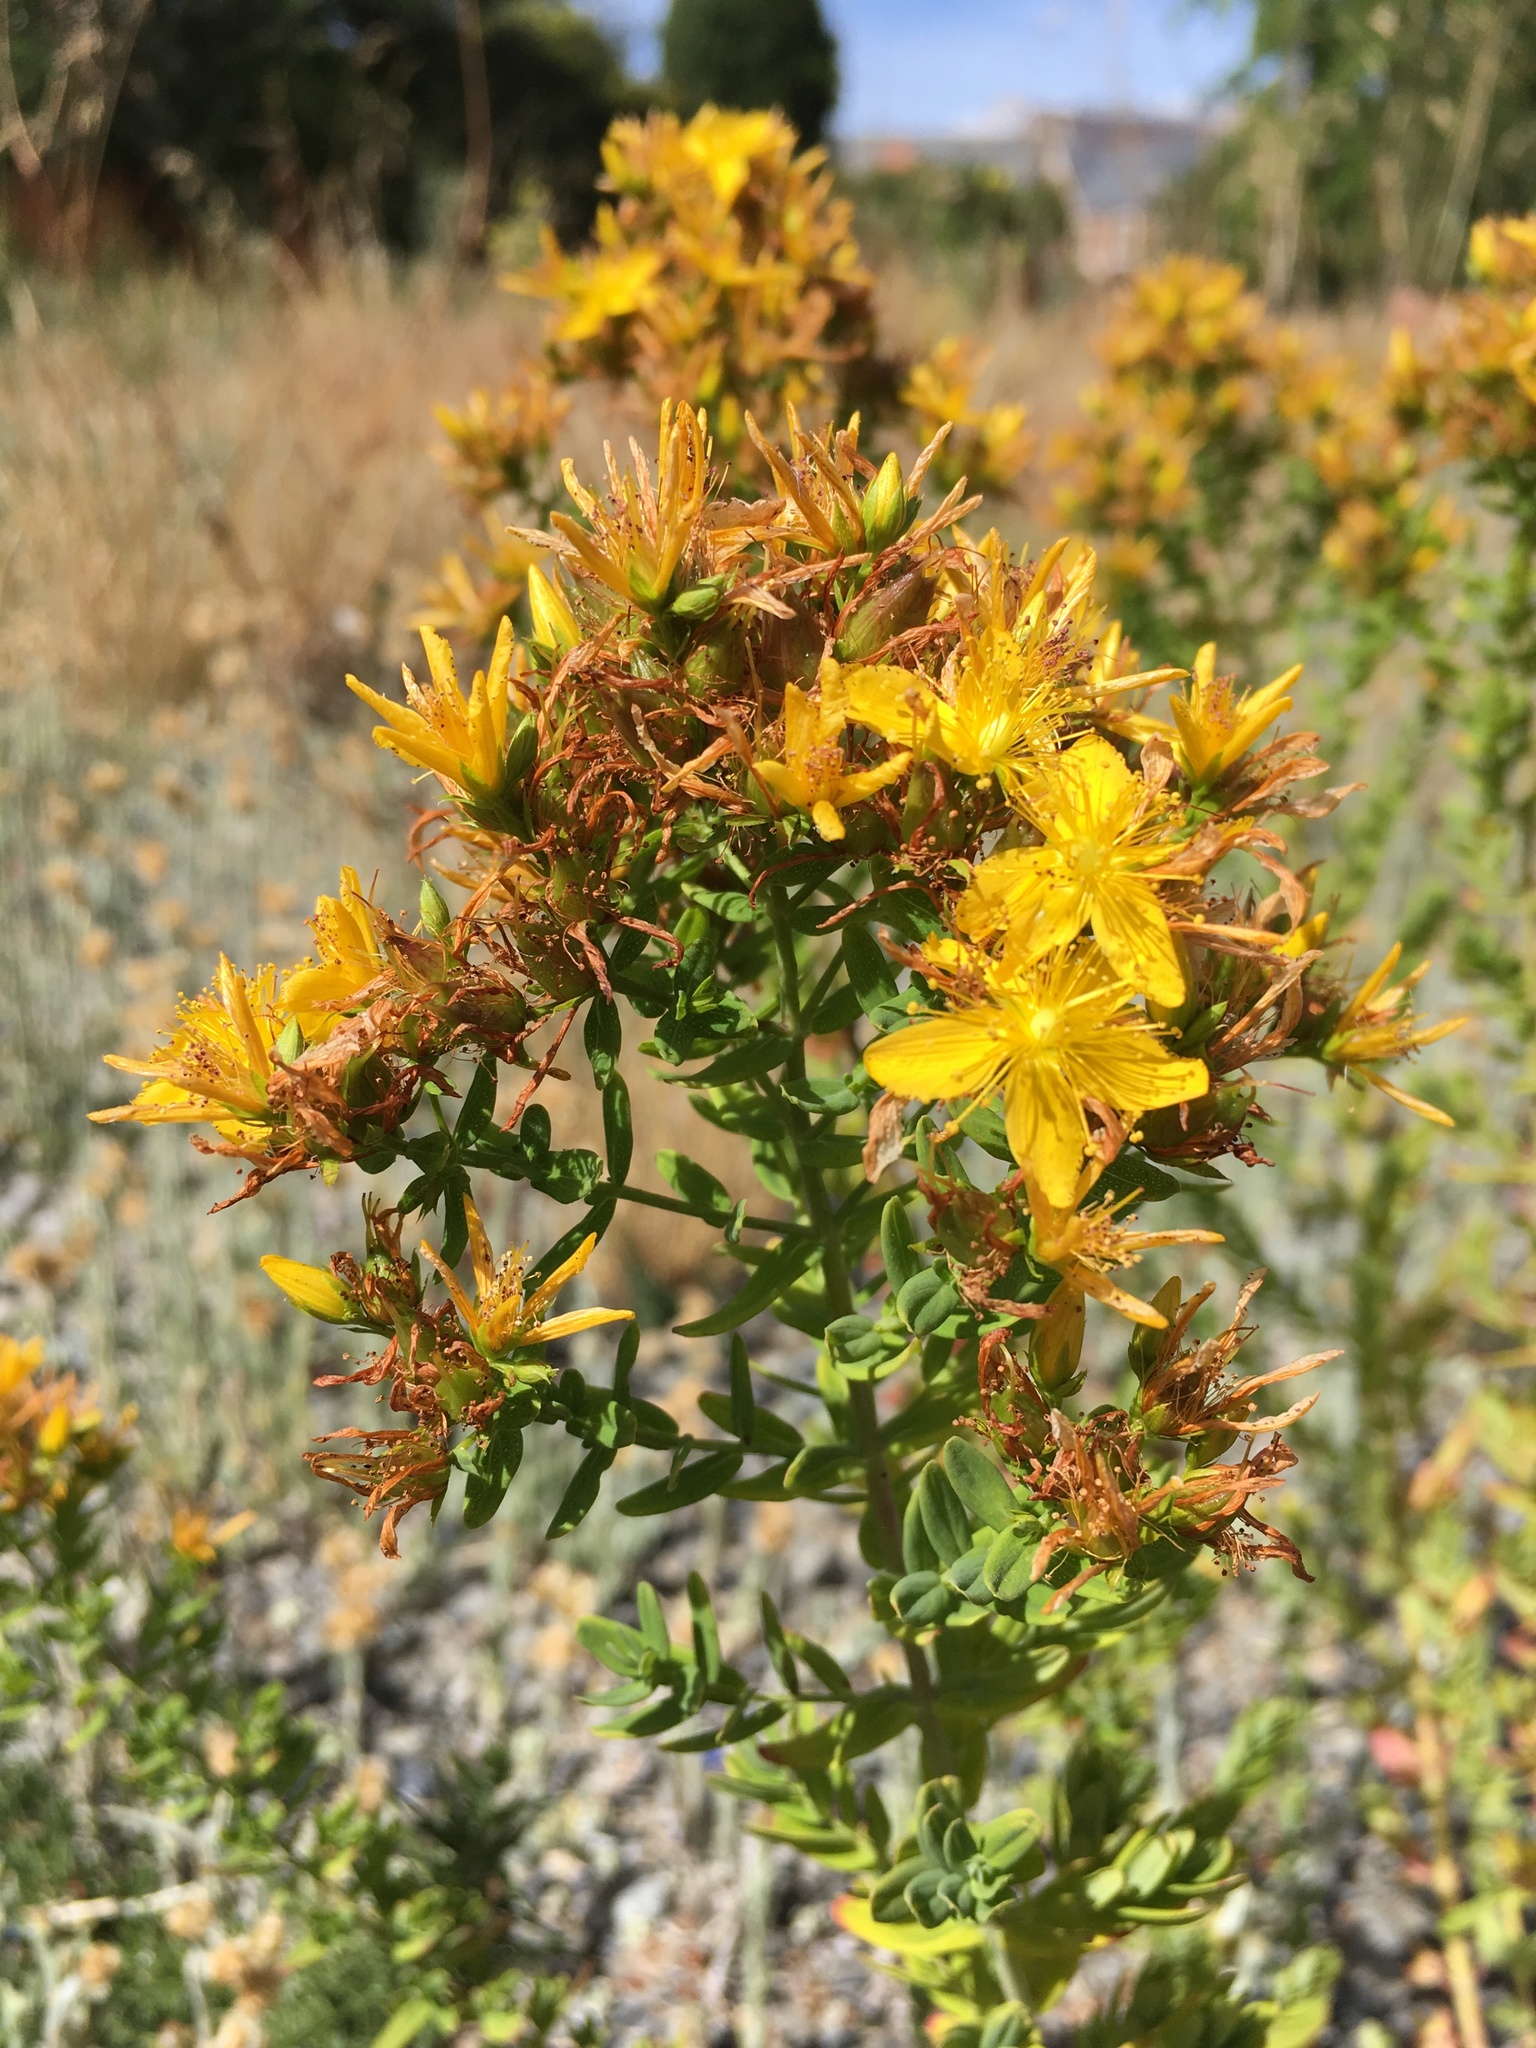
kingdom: Plantae
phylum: Tracheophyta
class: Magnoliopsida
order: Malpighiales
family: Hypericaceae
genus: Hypericum
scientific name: Hypericum perforatum
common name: Common st. johnswort
